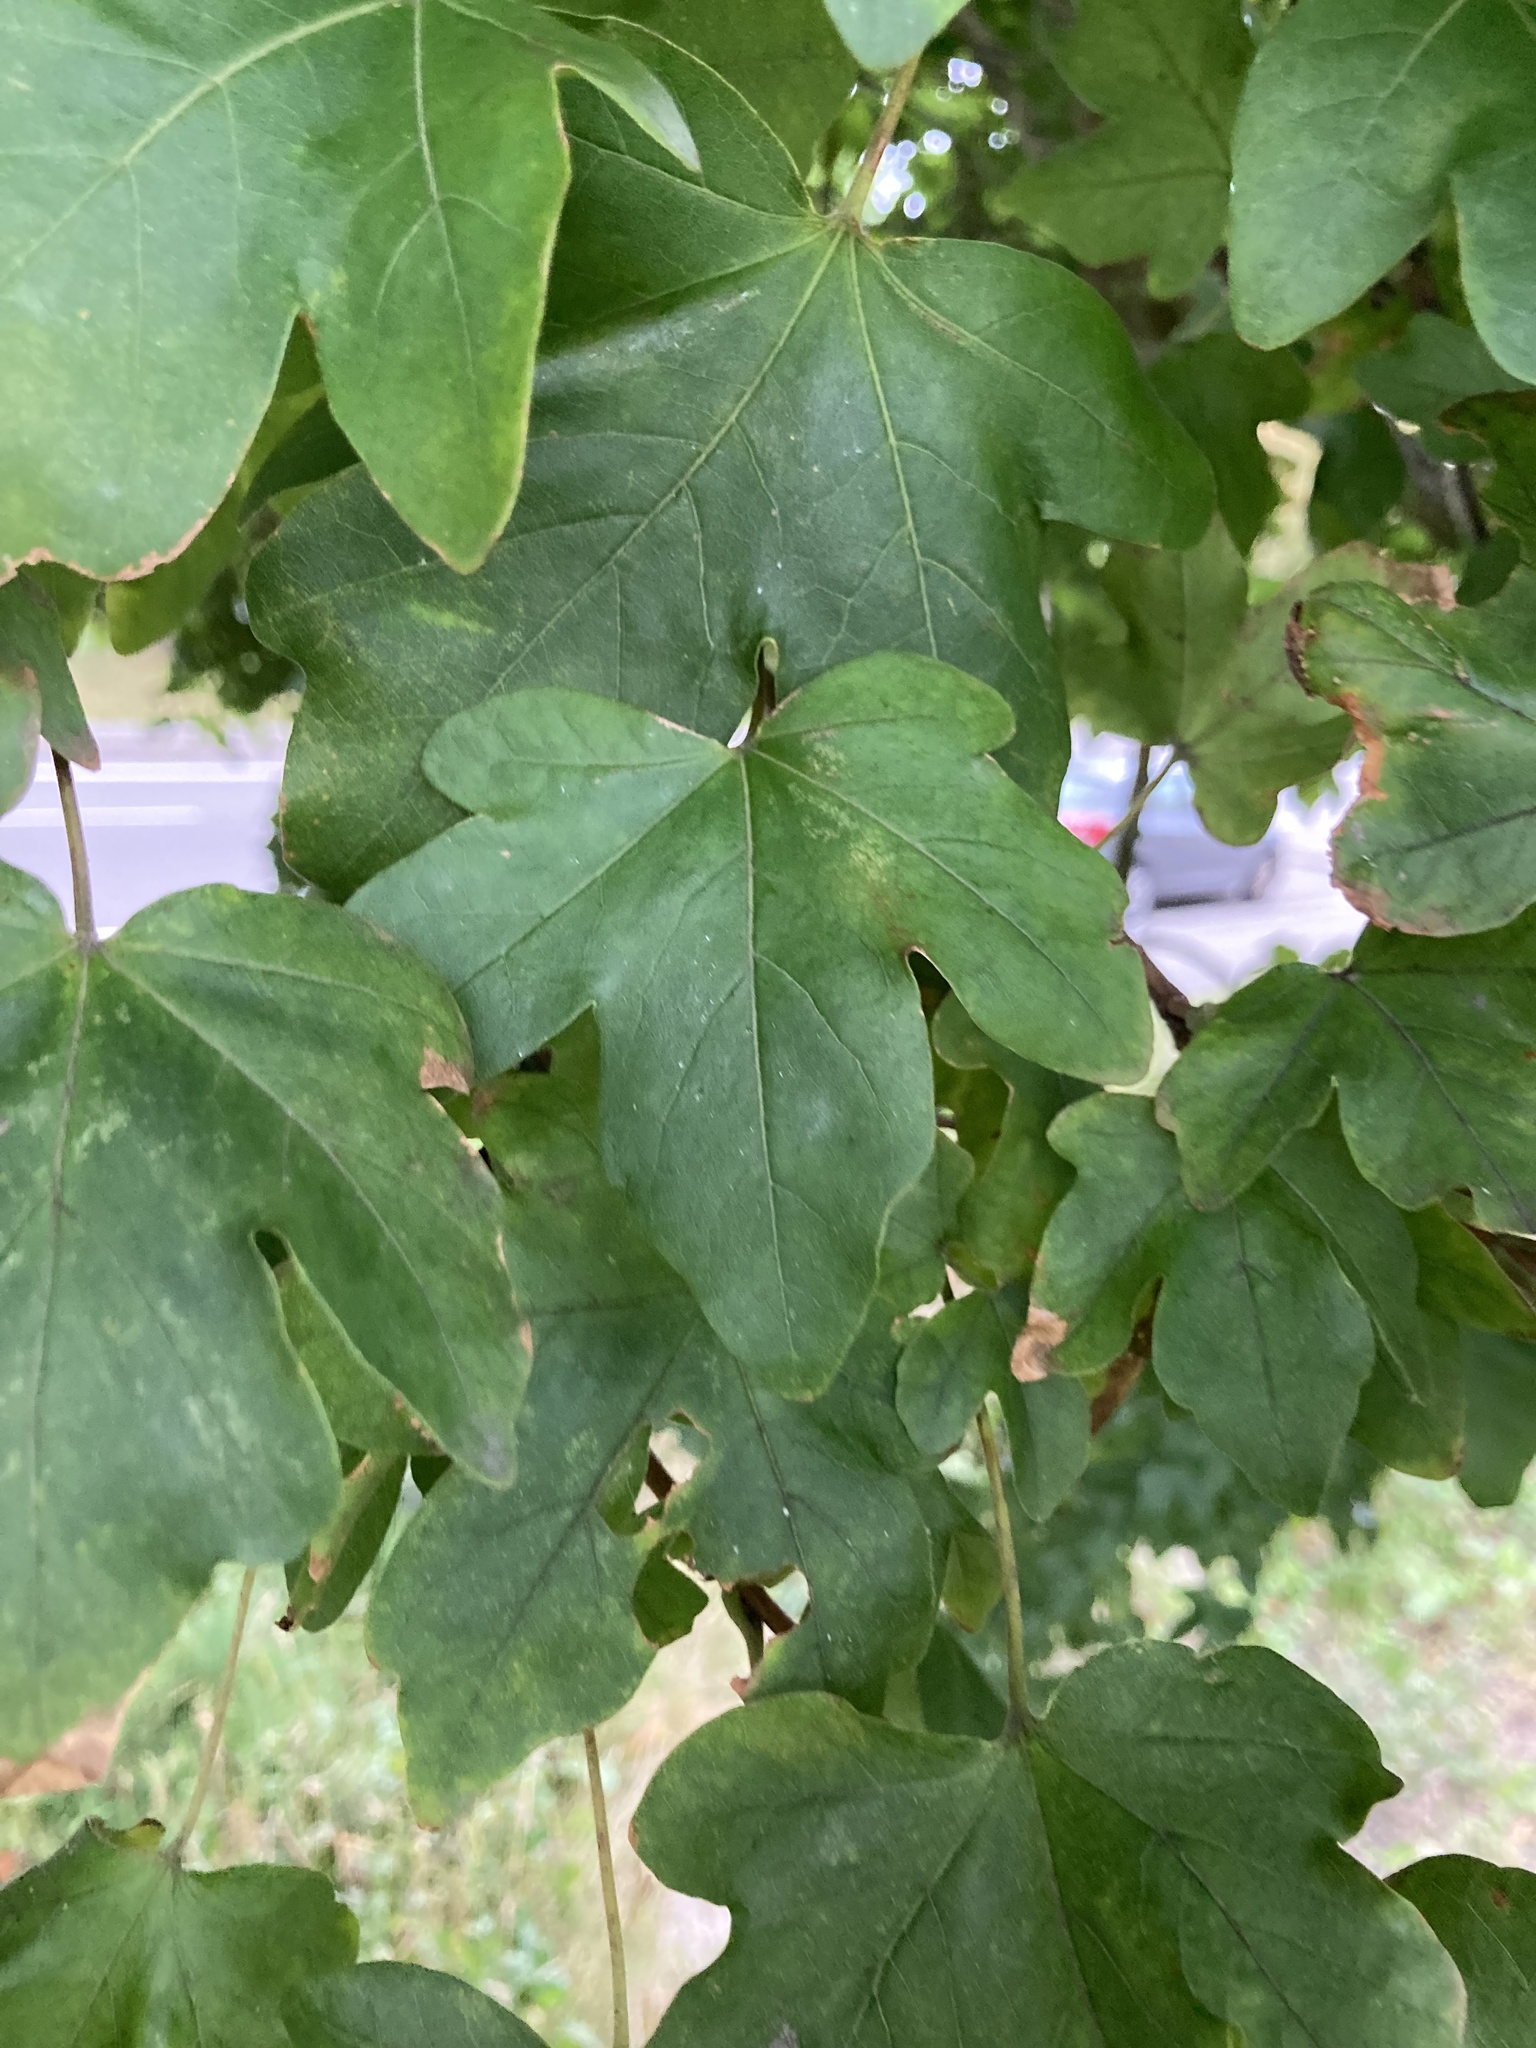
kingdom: Plantae
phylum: Tracheophyta
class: Magnoliopsida
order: Sapindales
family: Sapindaceae
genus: Acer
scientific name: Acer campestre
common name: Field maple
